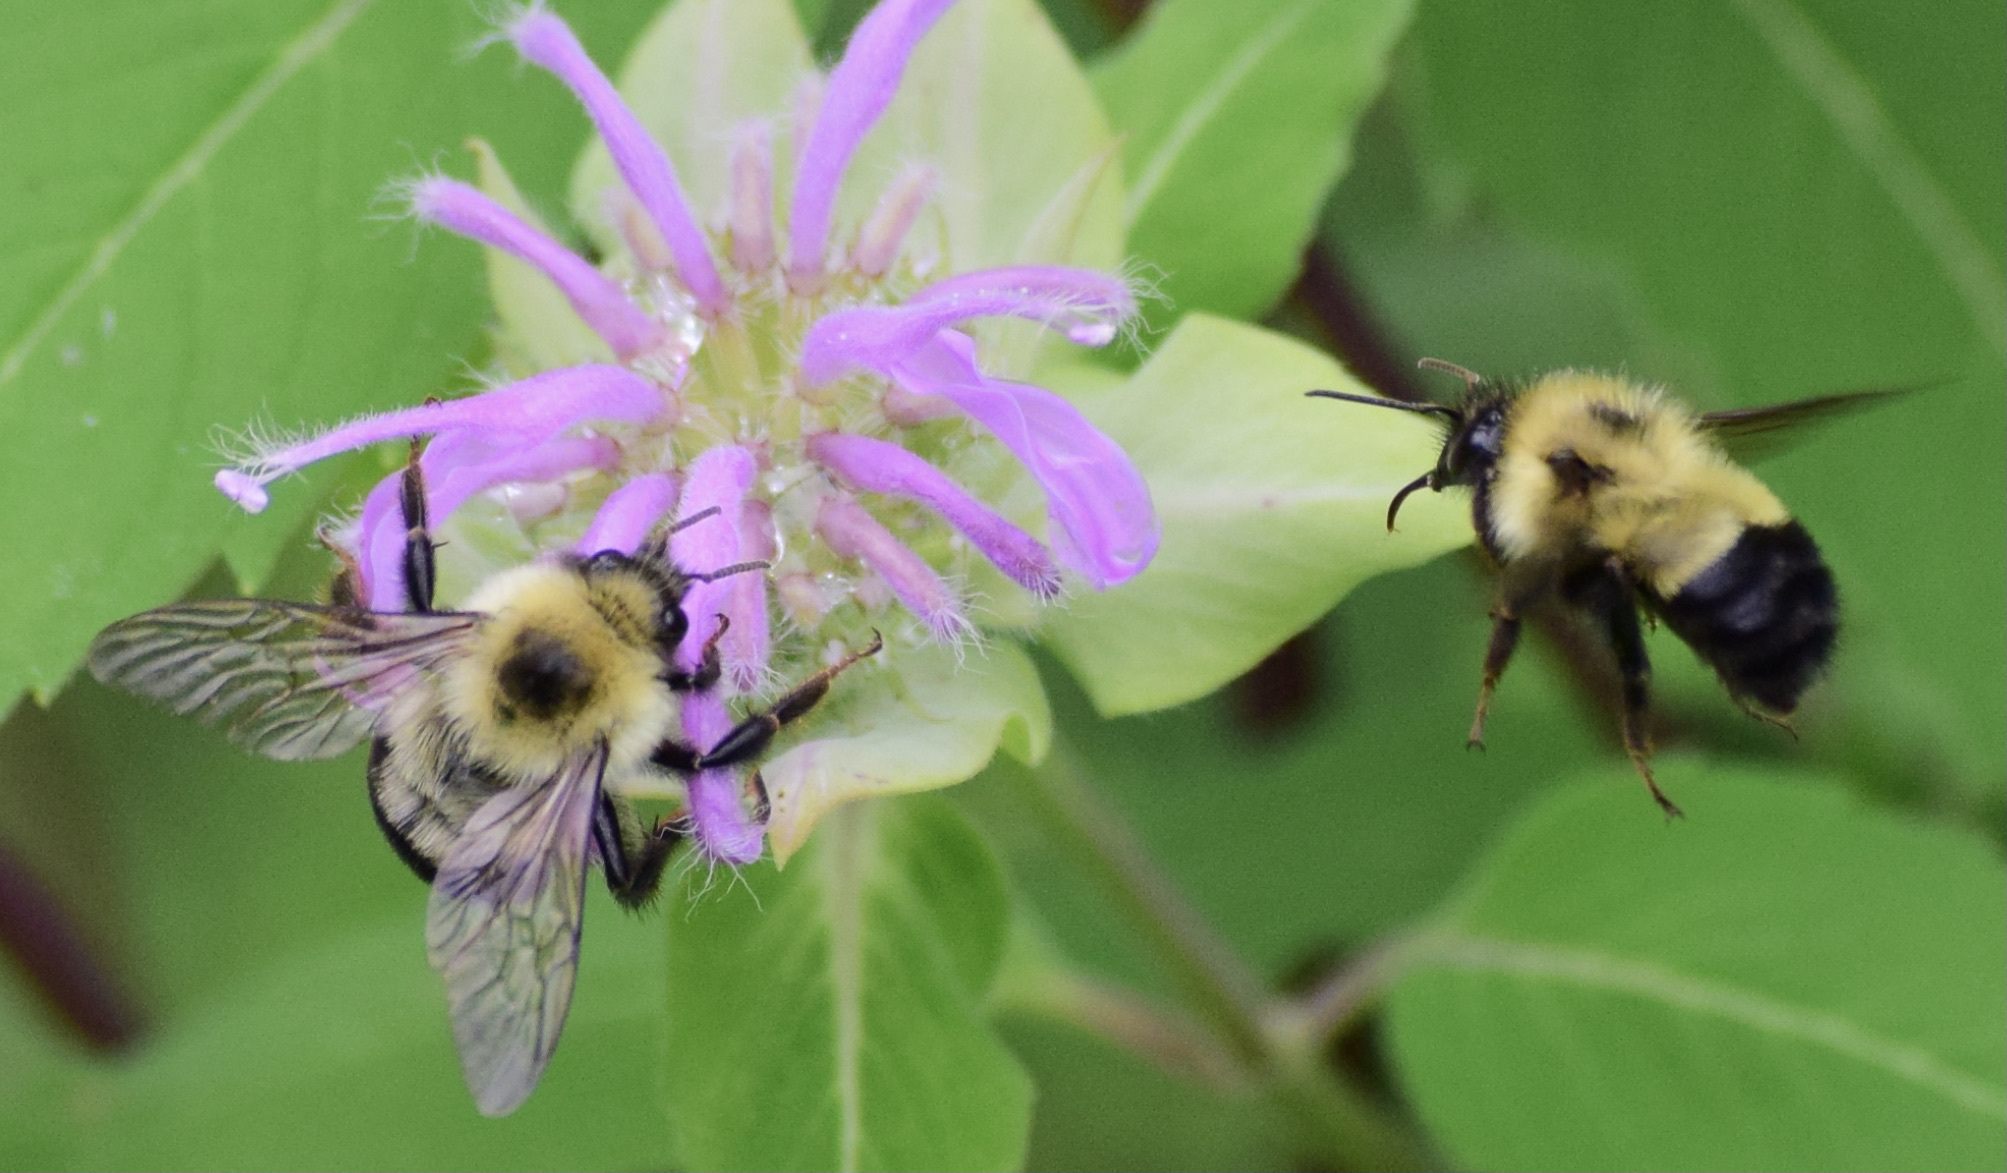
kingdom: Animalia
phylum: Arthropoda
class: Insecta
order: Hymenoptera
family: Apidae
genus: Bombus
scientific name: Bombus bimaculatus
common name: Two-spotted bumble bee
